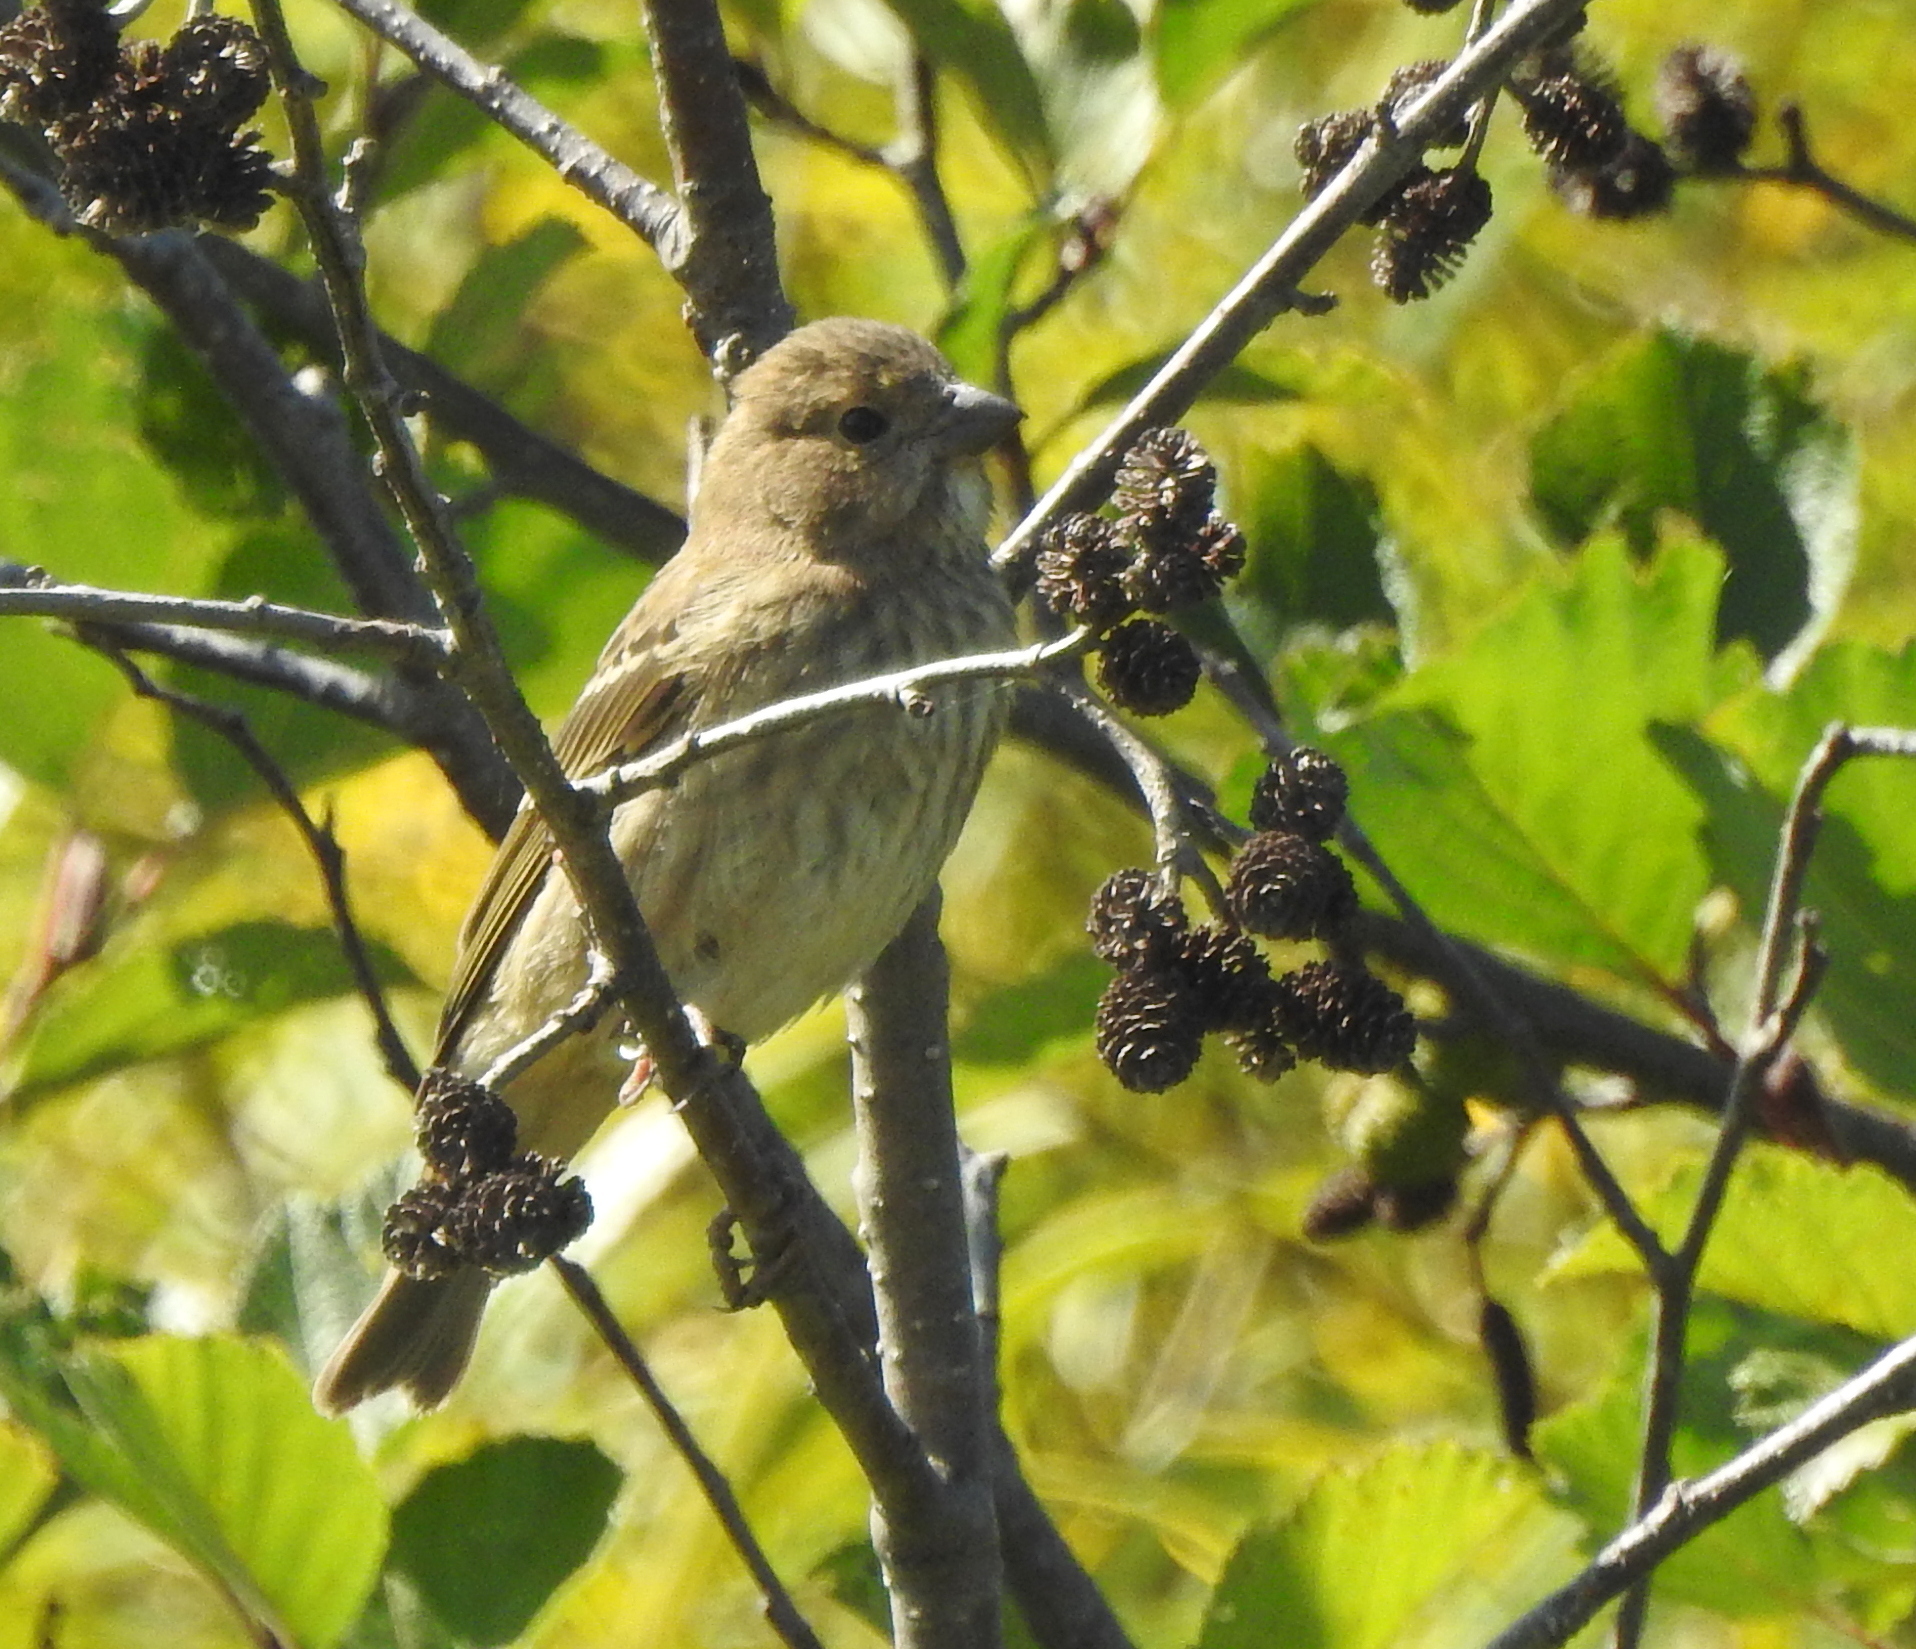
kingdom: Animalia
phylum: Chordata
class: Aves
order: Passeriformes
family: Fringillidae
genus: Carpodacus
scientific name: Carpodacus erythrinus
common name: Common rosefinch
